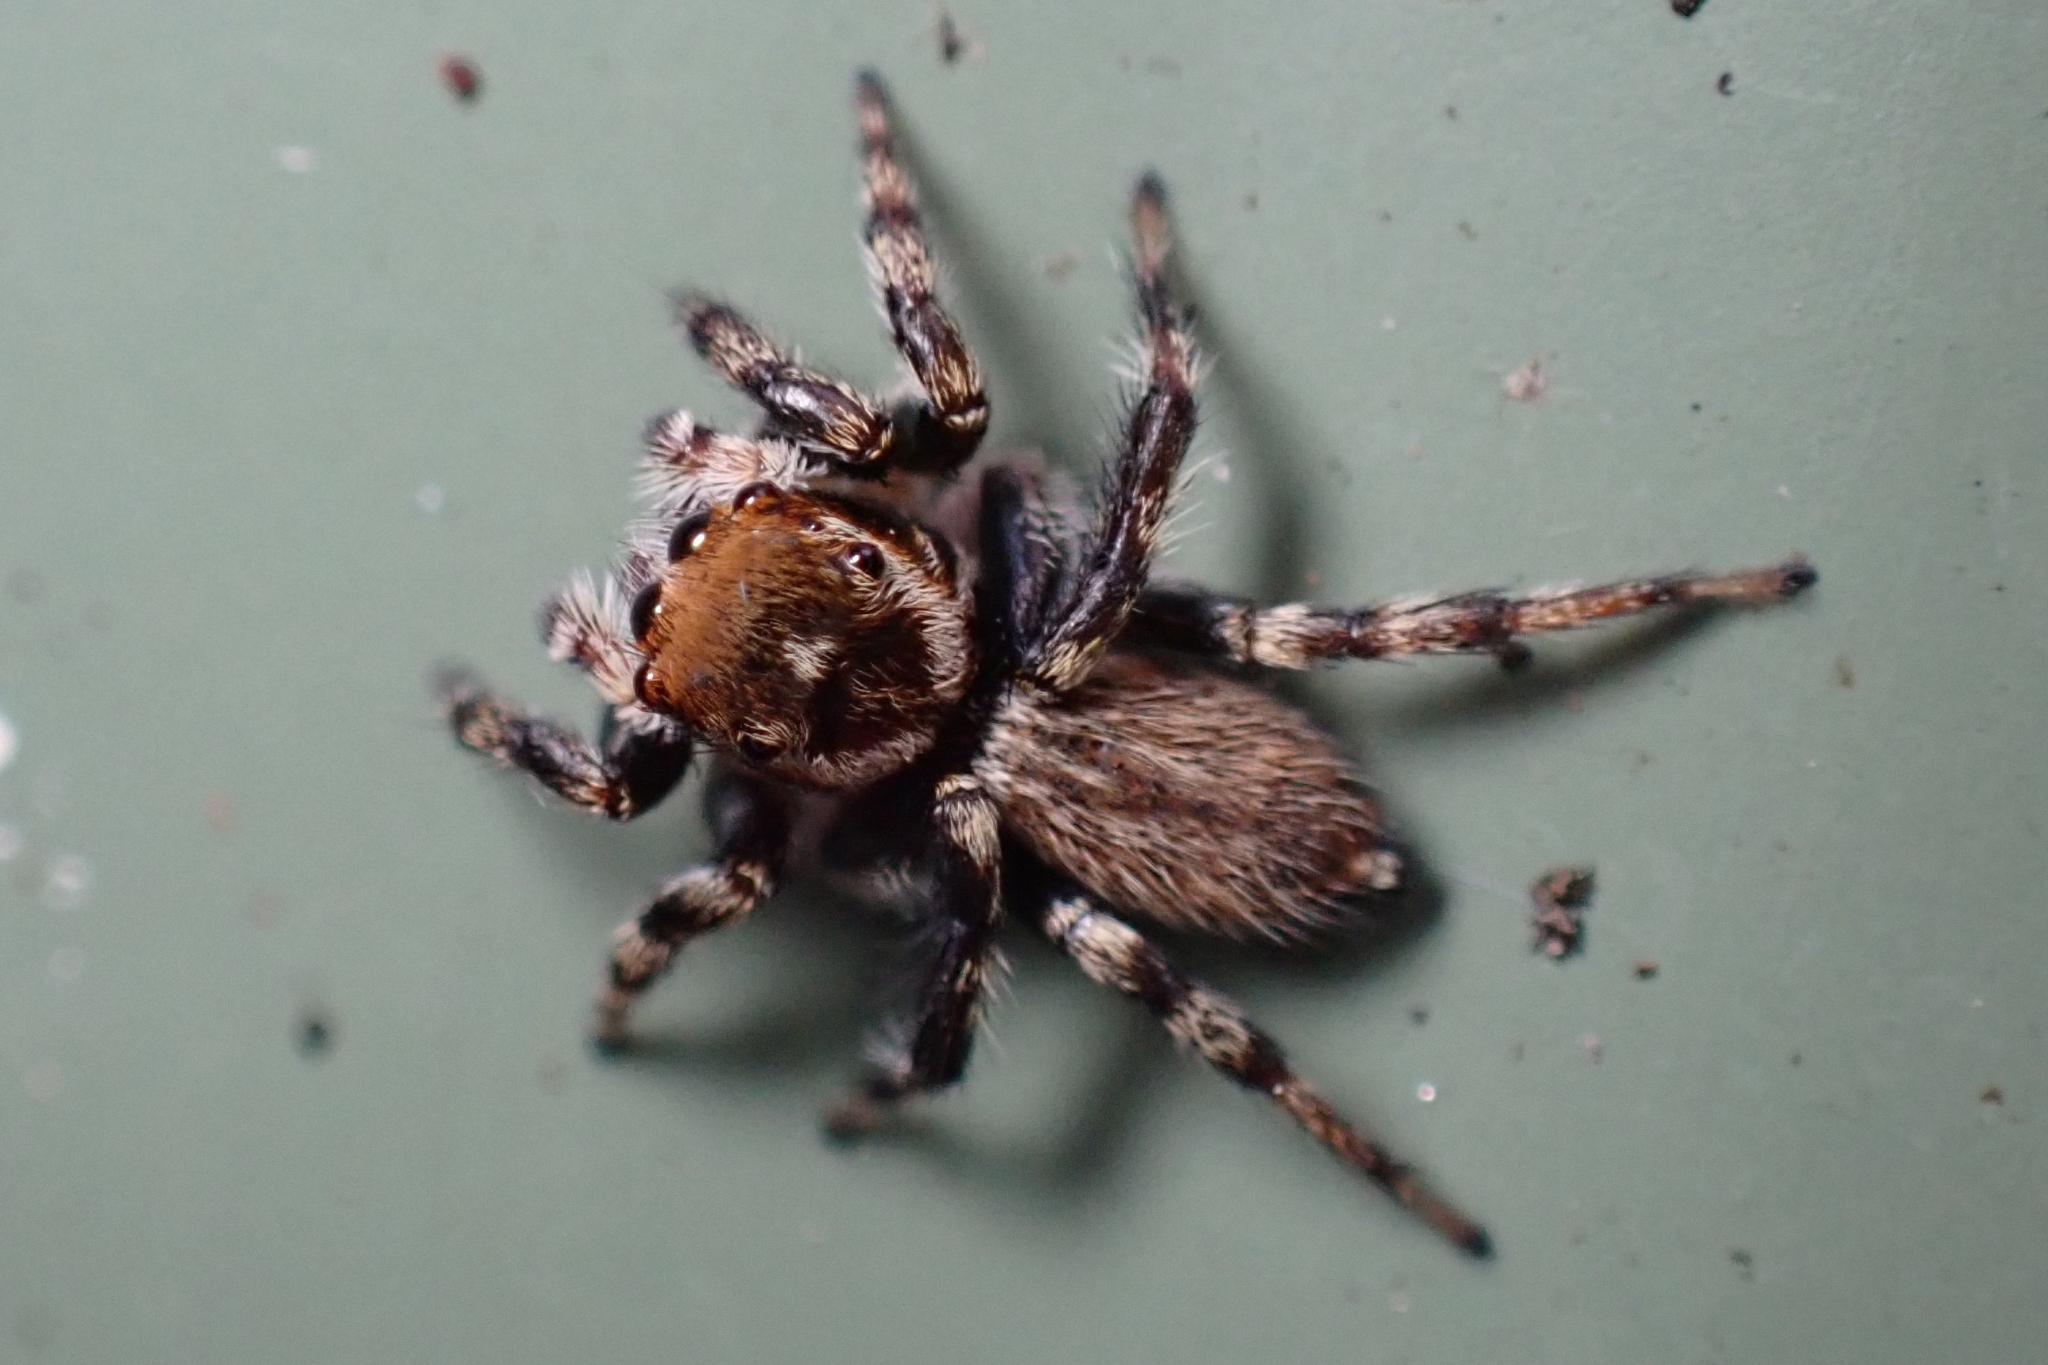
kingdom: Animalia
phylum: Arthropoda
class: Arachnida
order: Araneae
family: Salticidae
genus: Maratus
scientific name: Maratus griseus
